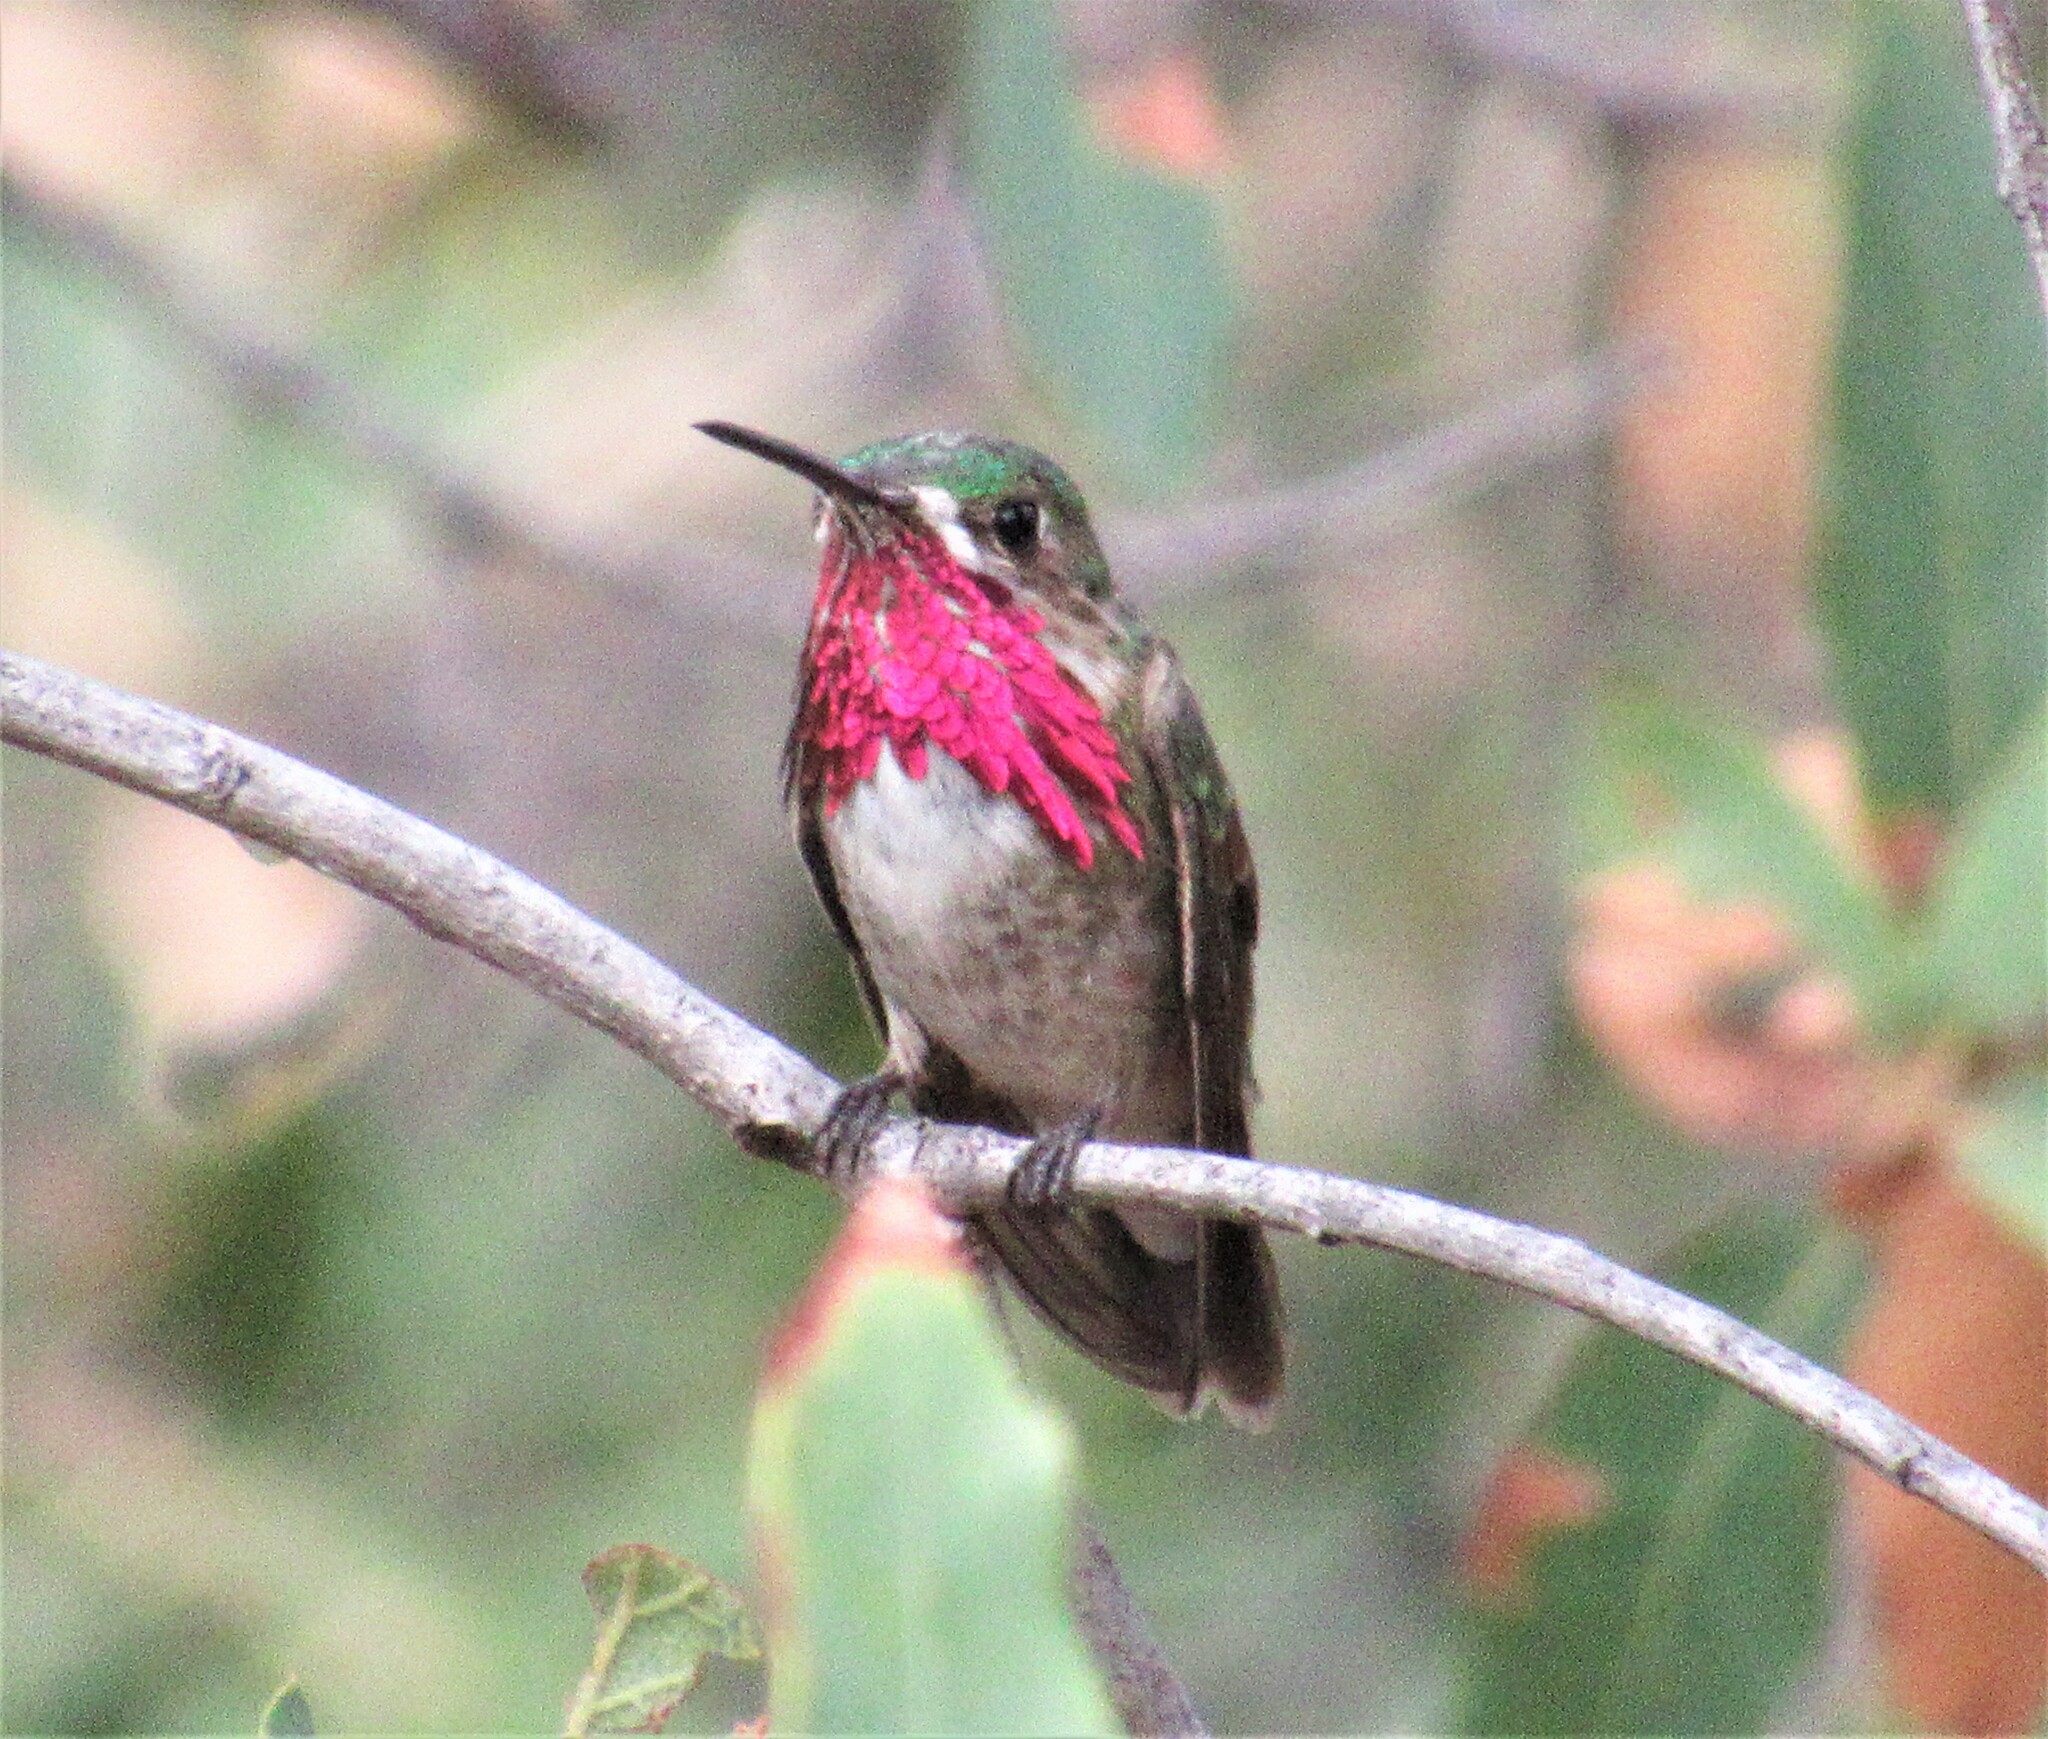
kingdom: Animalia
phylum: Chordata
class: Aves
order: Apodiformes
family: Trochilidae
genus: Selasphorus
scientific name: Selasphorus calliope
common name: Calliope hummingbird
